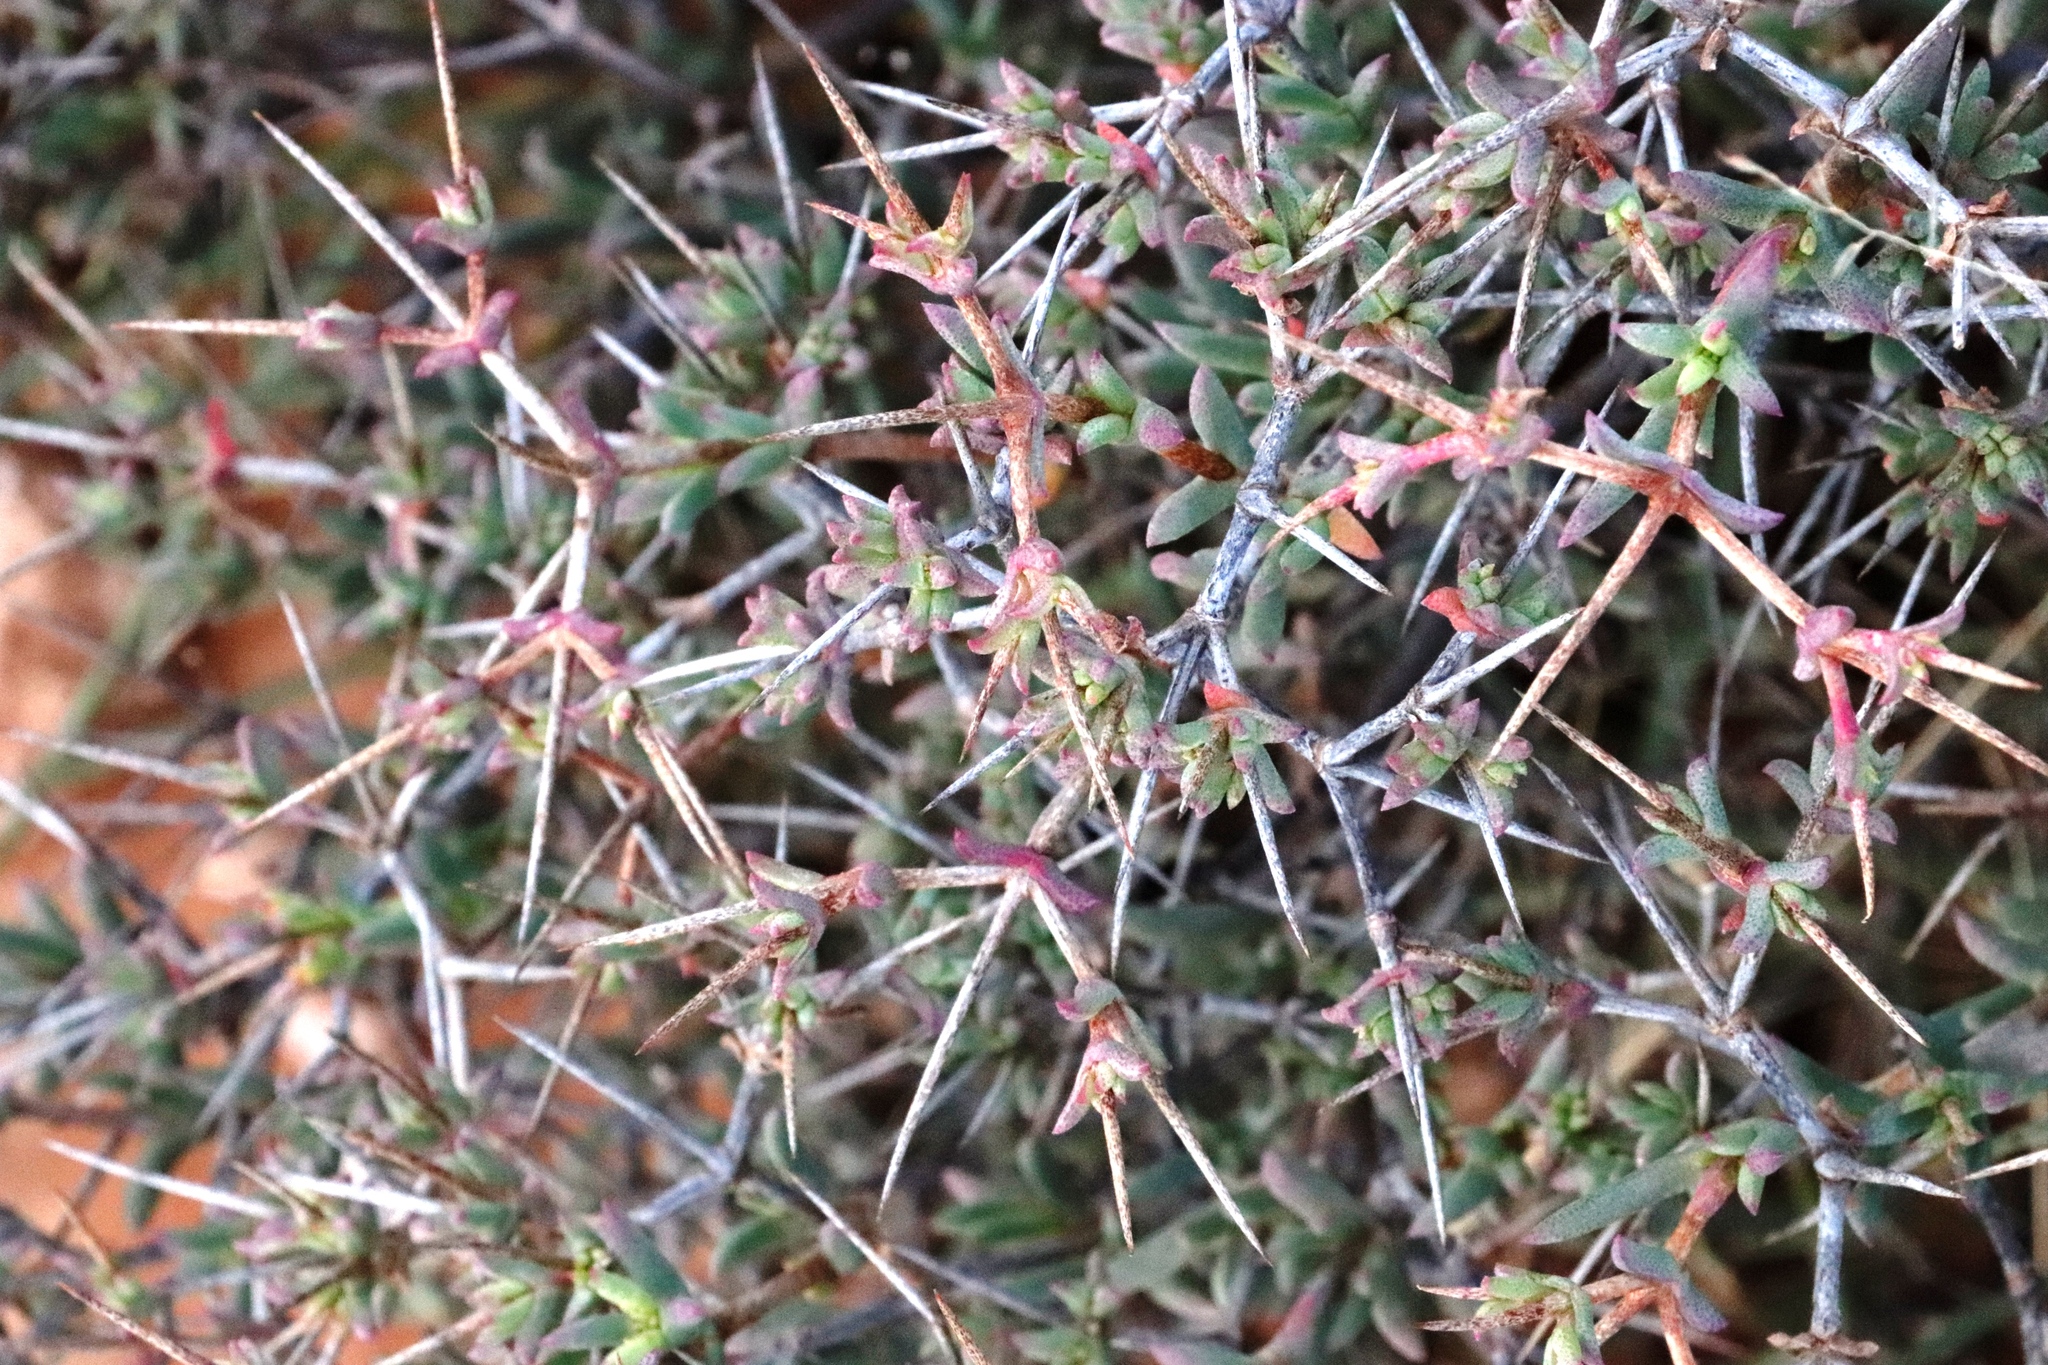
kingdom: Plantae
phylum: Tracheophyta
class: Magnoliopsida
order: Caryophyllales
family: Aizoaceae
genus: Ruschia
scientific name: Ruschia intricata
